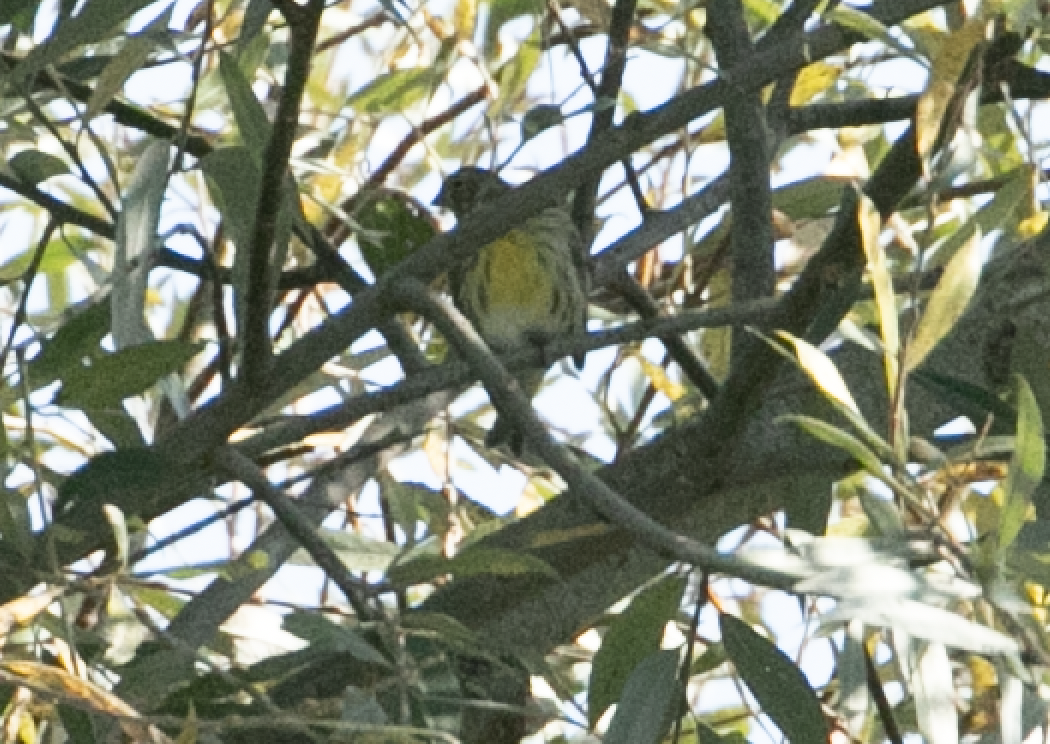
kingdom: Animalia
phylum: Chordata
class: Aves
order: Passeriformes
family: Fringillidae
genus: Serinus
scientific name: Serinus serinus
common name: European serin
